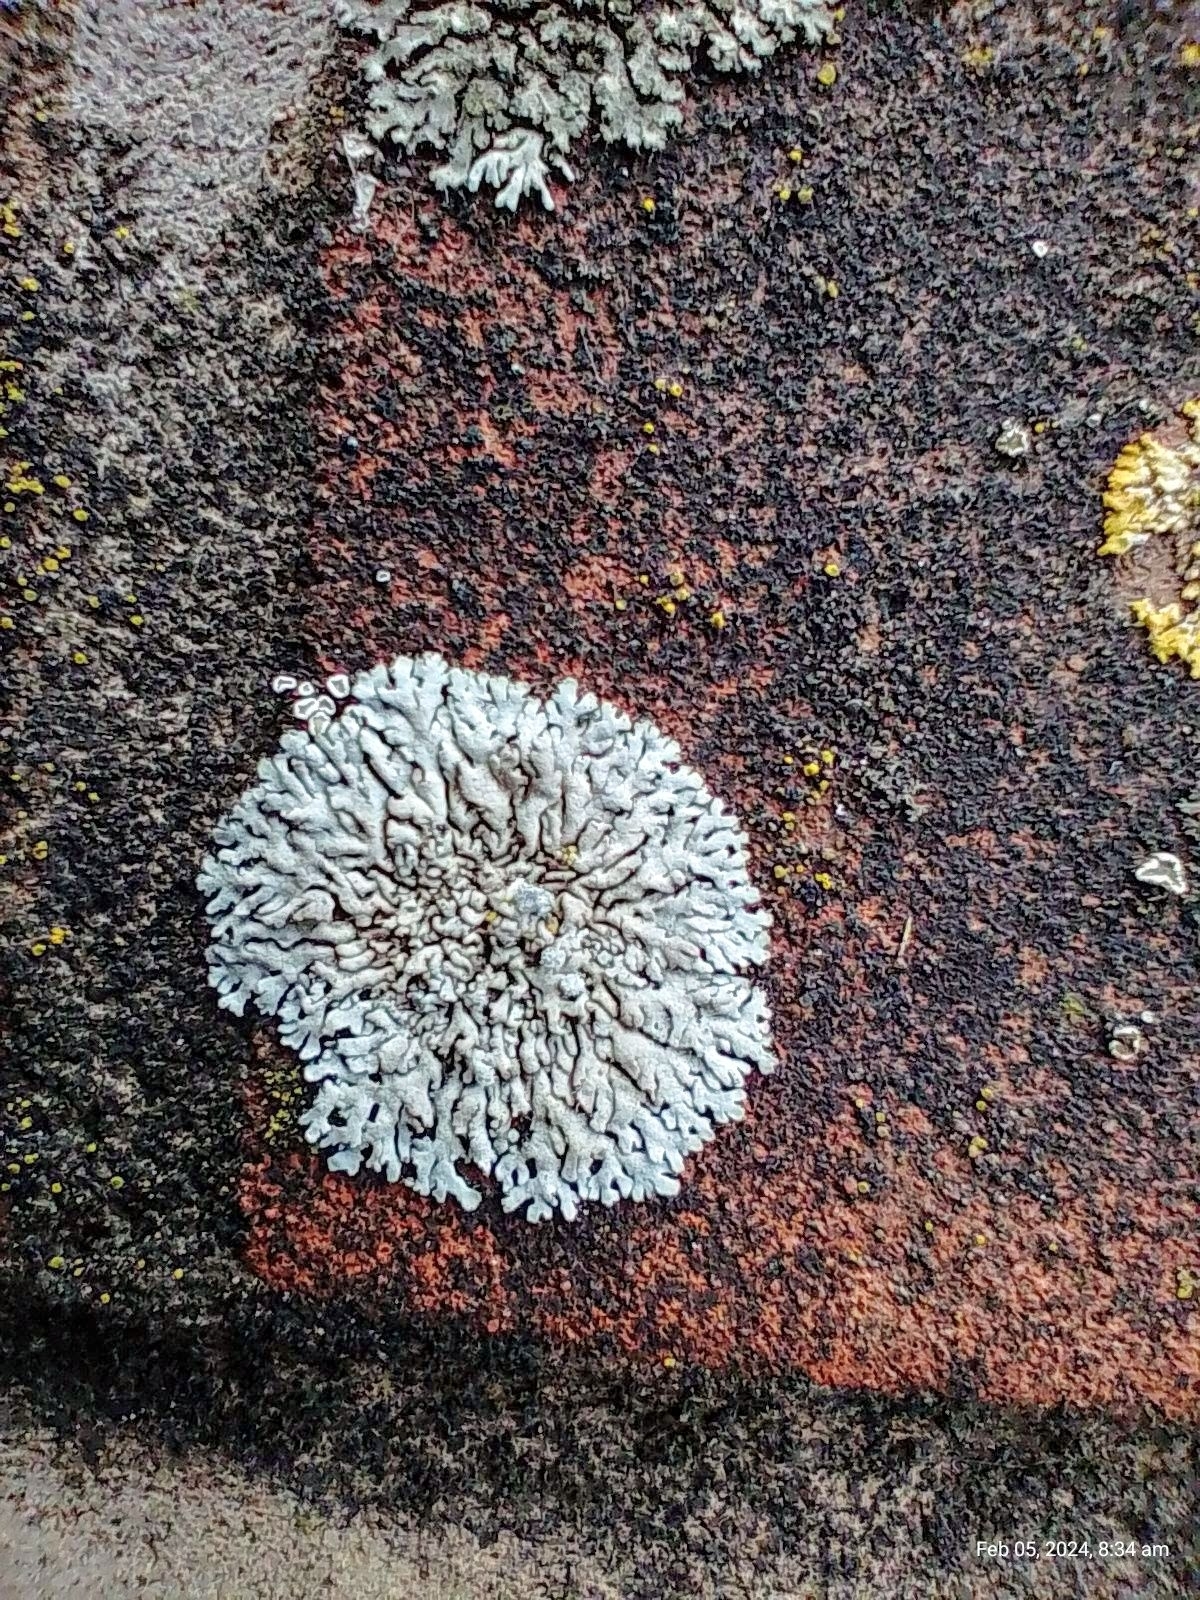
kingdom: Fungi
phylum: Ascomycota
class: Lecanoromycetes
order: Caliciales
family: Physciaceae
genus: Physcia
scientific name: Physcia caesia
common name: Blue-gray rosette lichen
